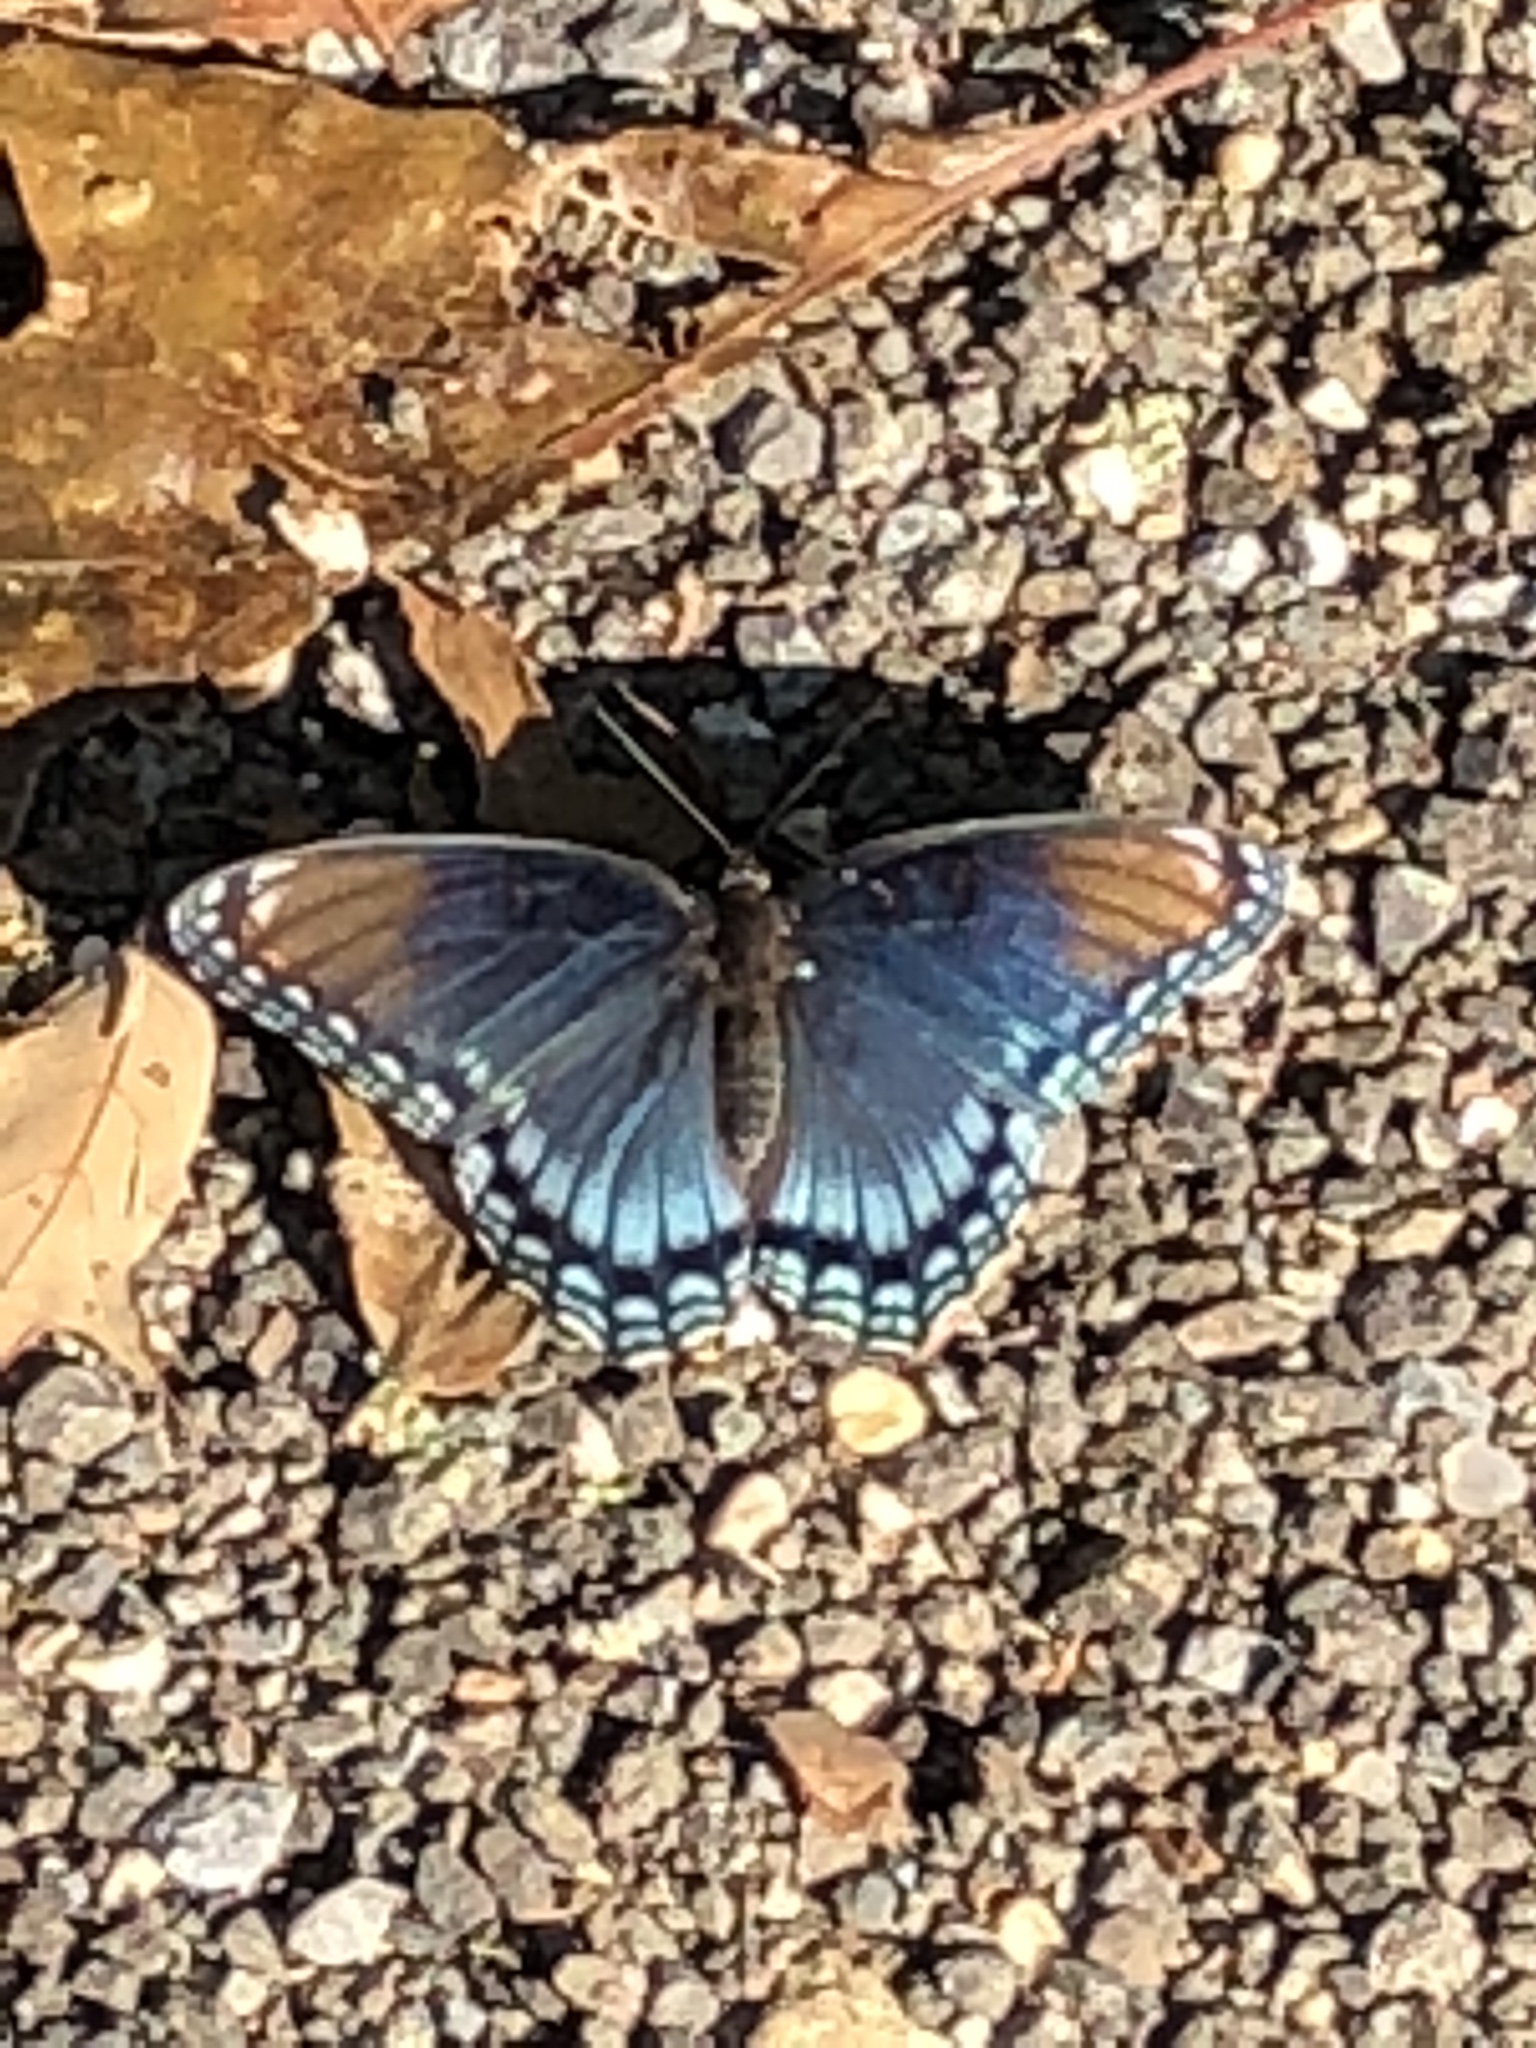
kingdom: Animalia
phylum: Arthropoda
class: Insecta
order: Lepidoptera
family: Nymphalidae
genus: Limenitis
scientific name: Limenitis arthemis
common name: Red-spotted admiral
